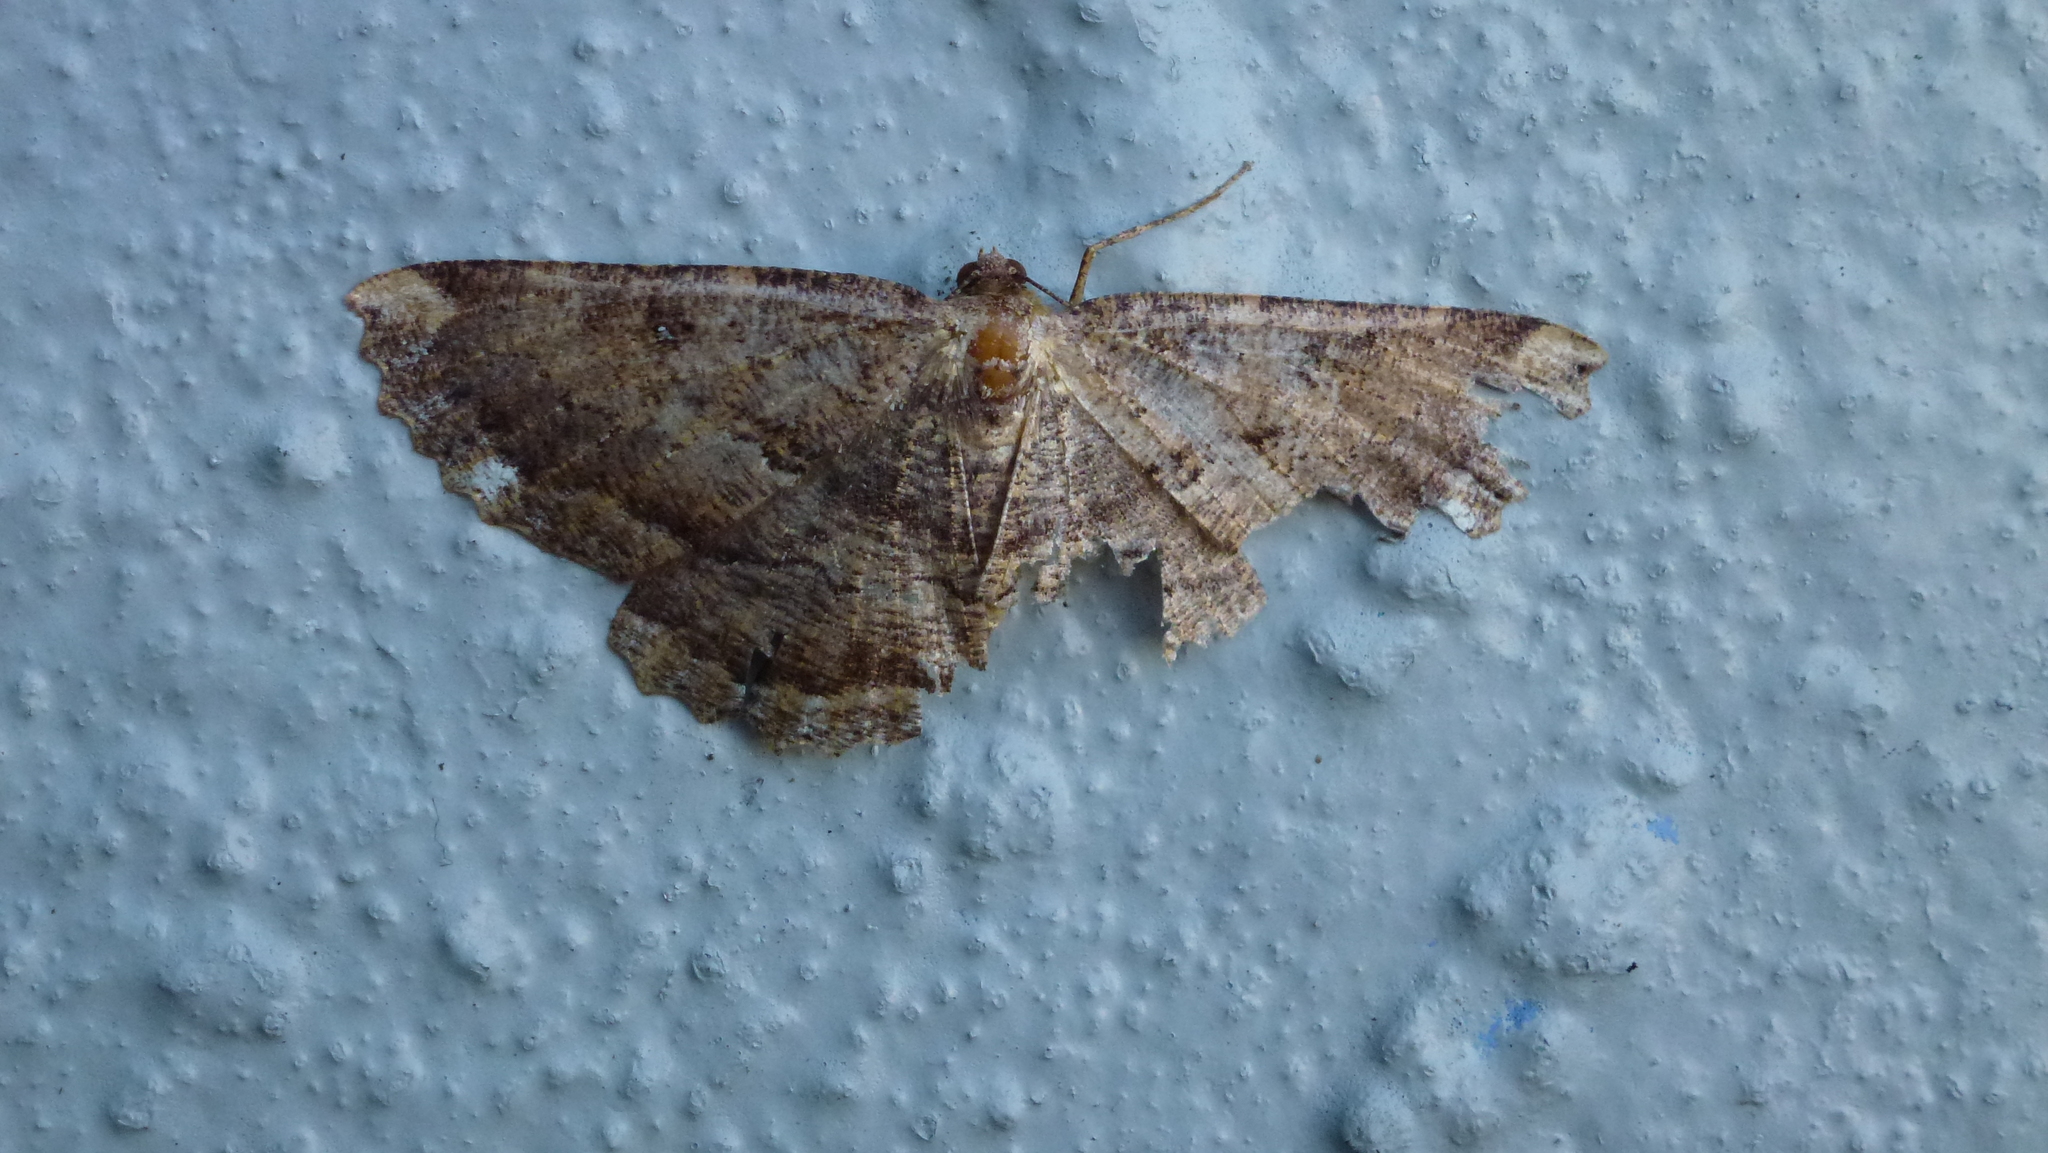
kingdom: Animalia
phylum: Arthropoda
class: Insecta
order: Lepidoptera
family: Geometridae
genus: Gellonia
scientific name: Gellonia dejectaria
